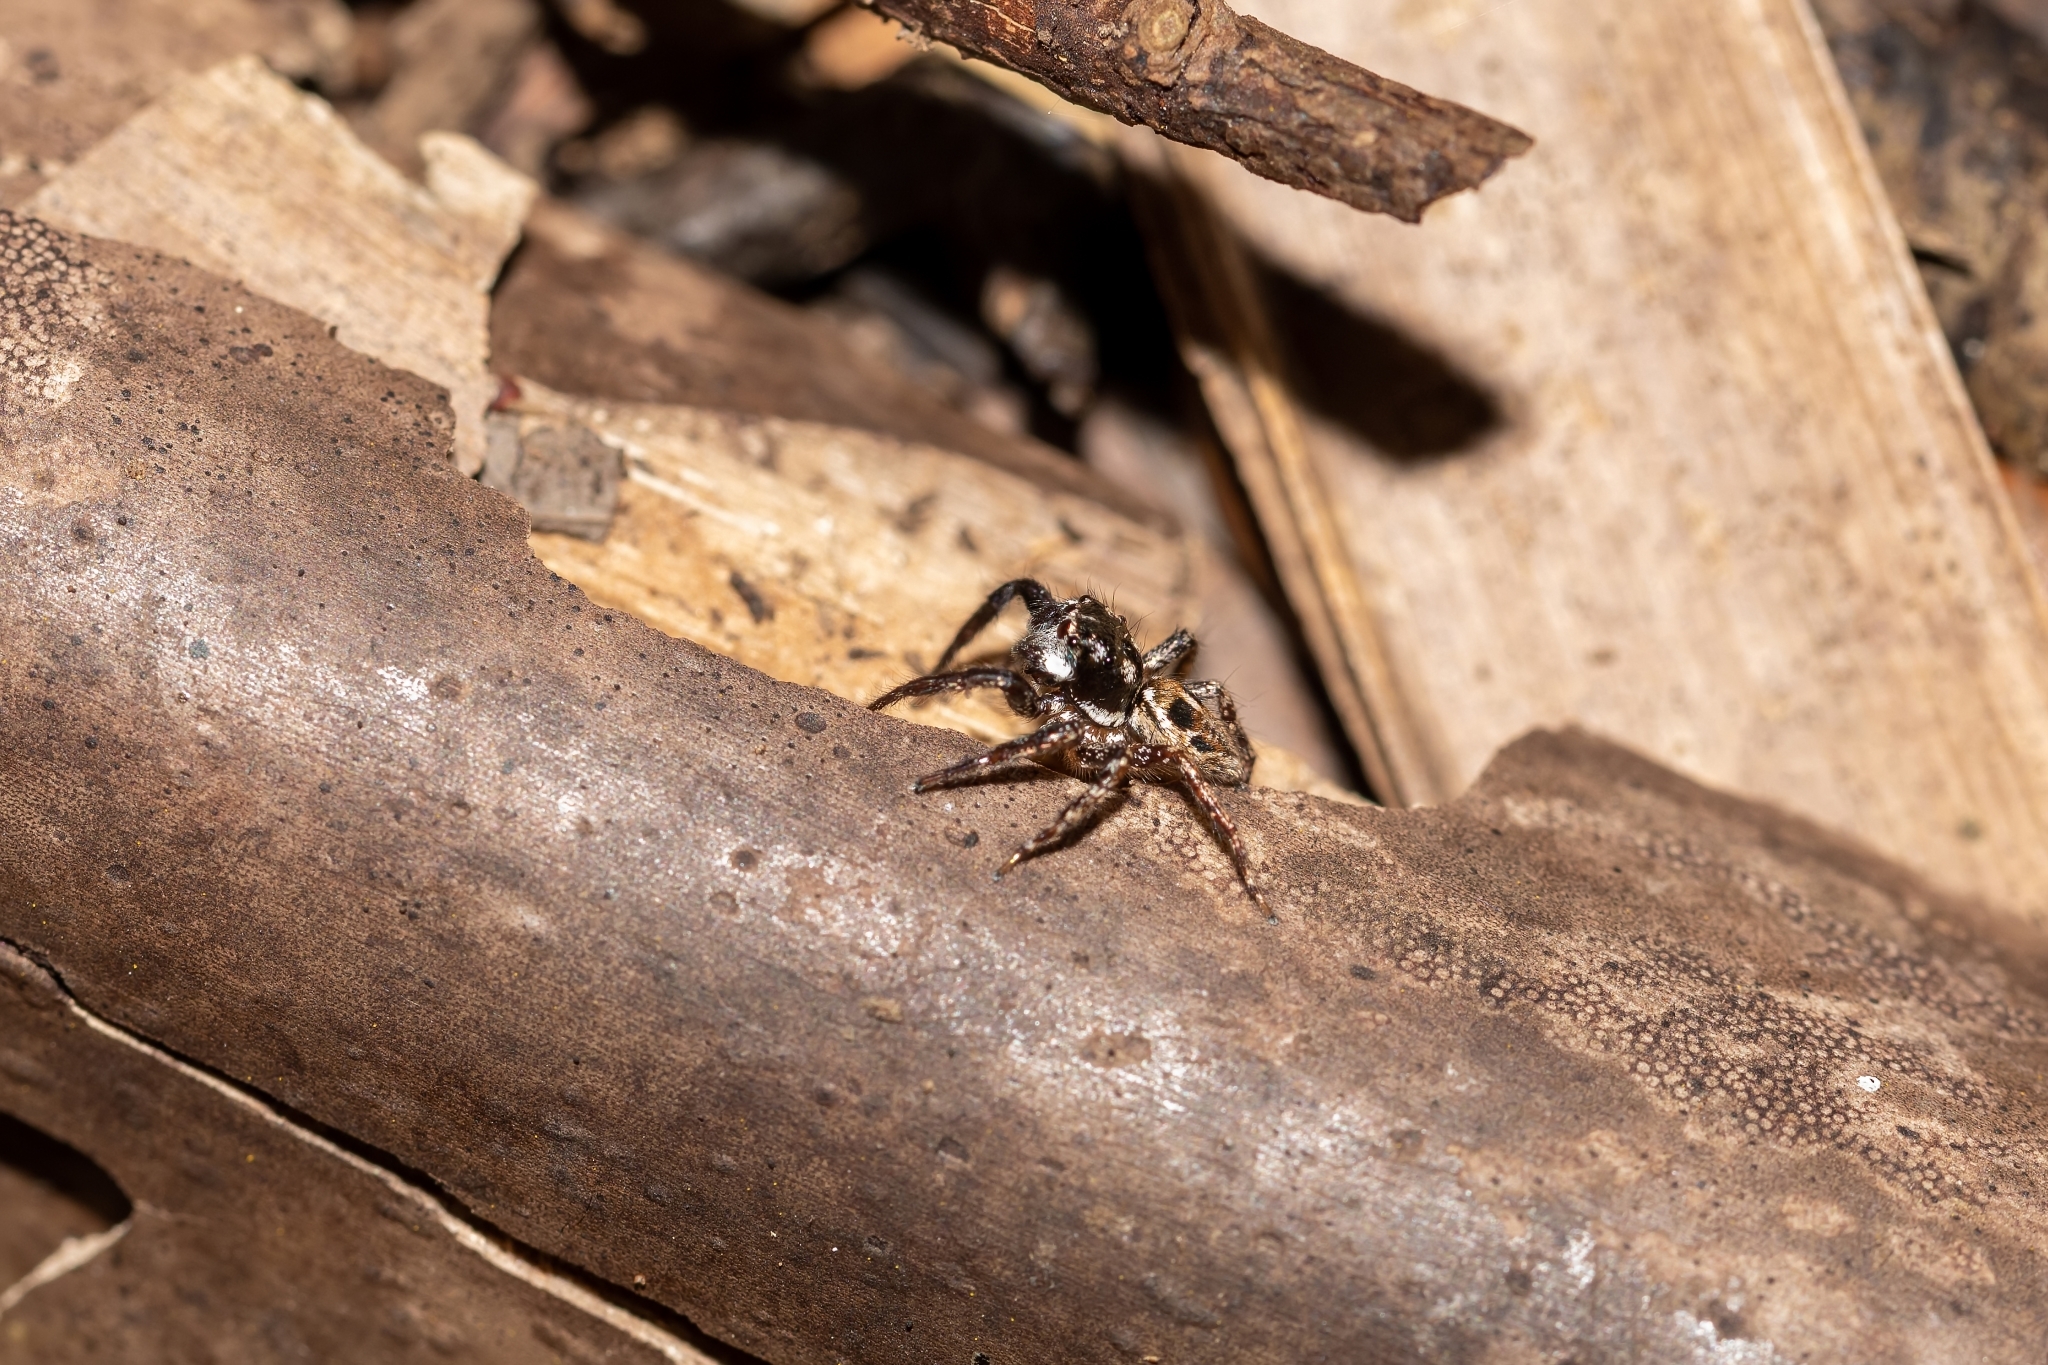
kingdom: Animalia
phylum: Arthropoda
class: Arachnida
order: Araneae
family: Salticidae
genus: Anasaitis
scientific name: Anasaitis canosa
